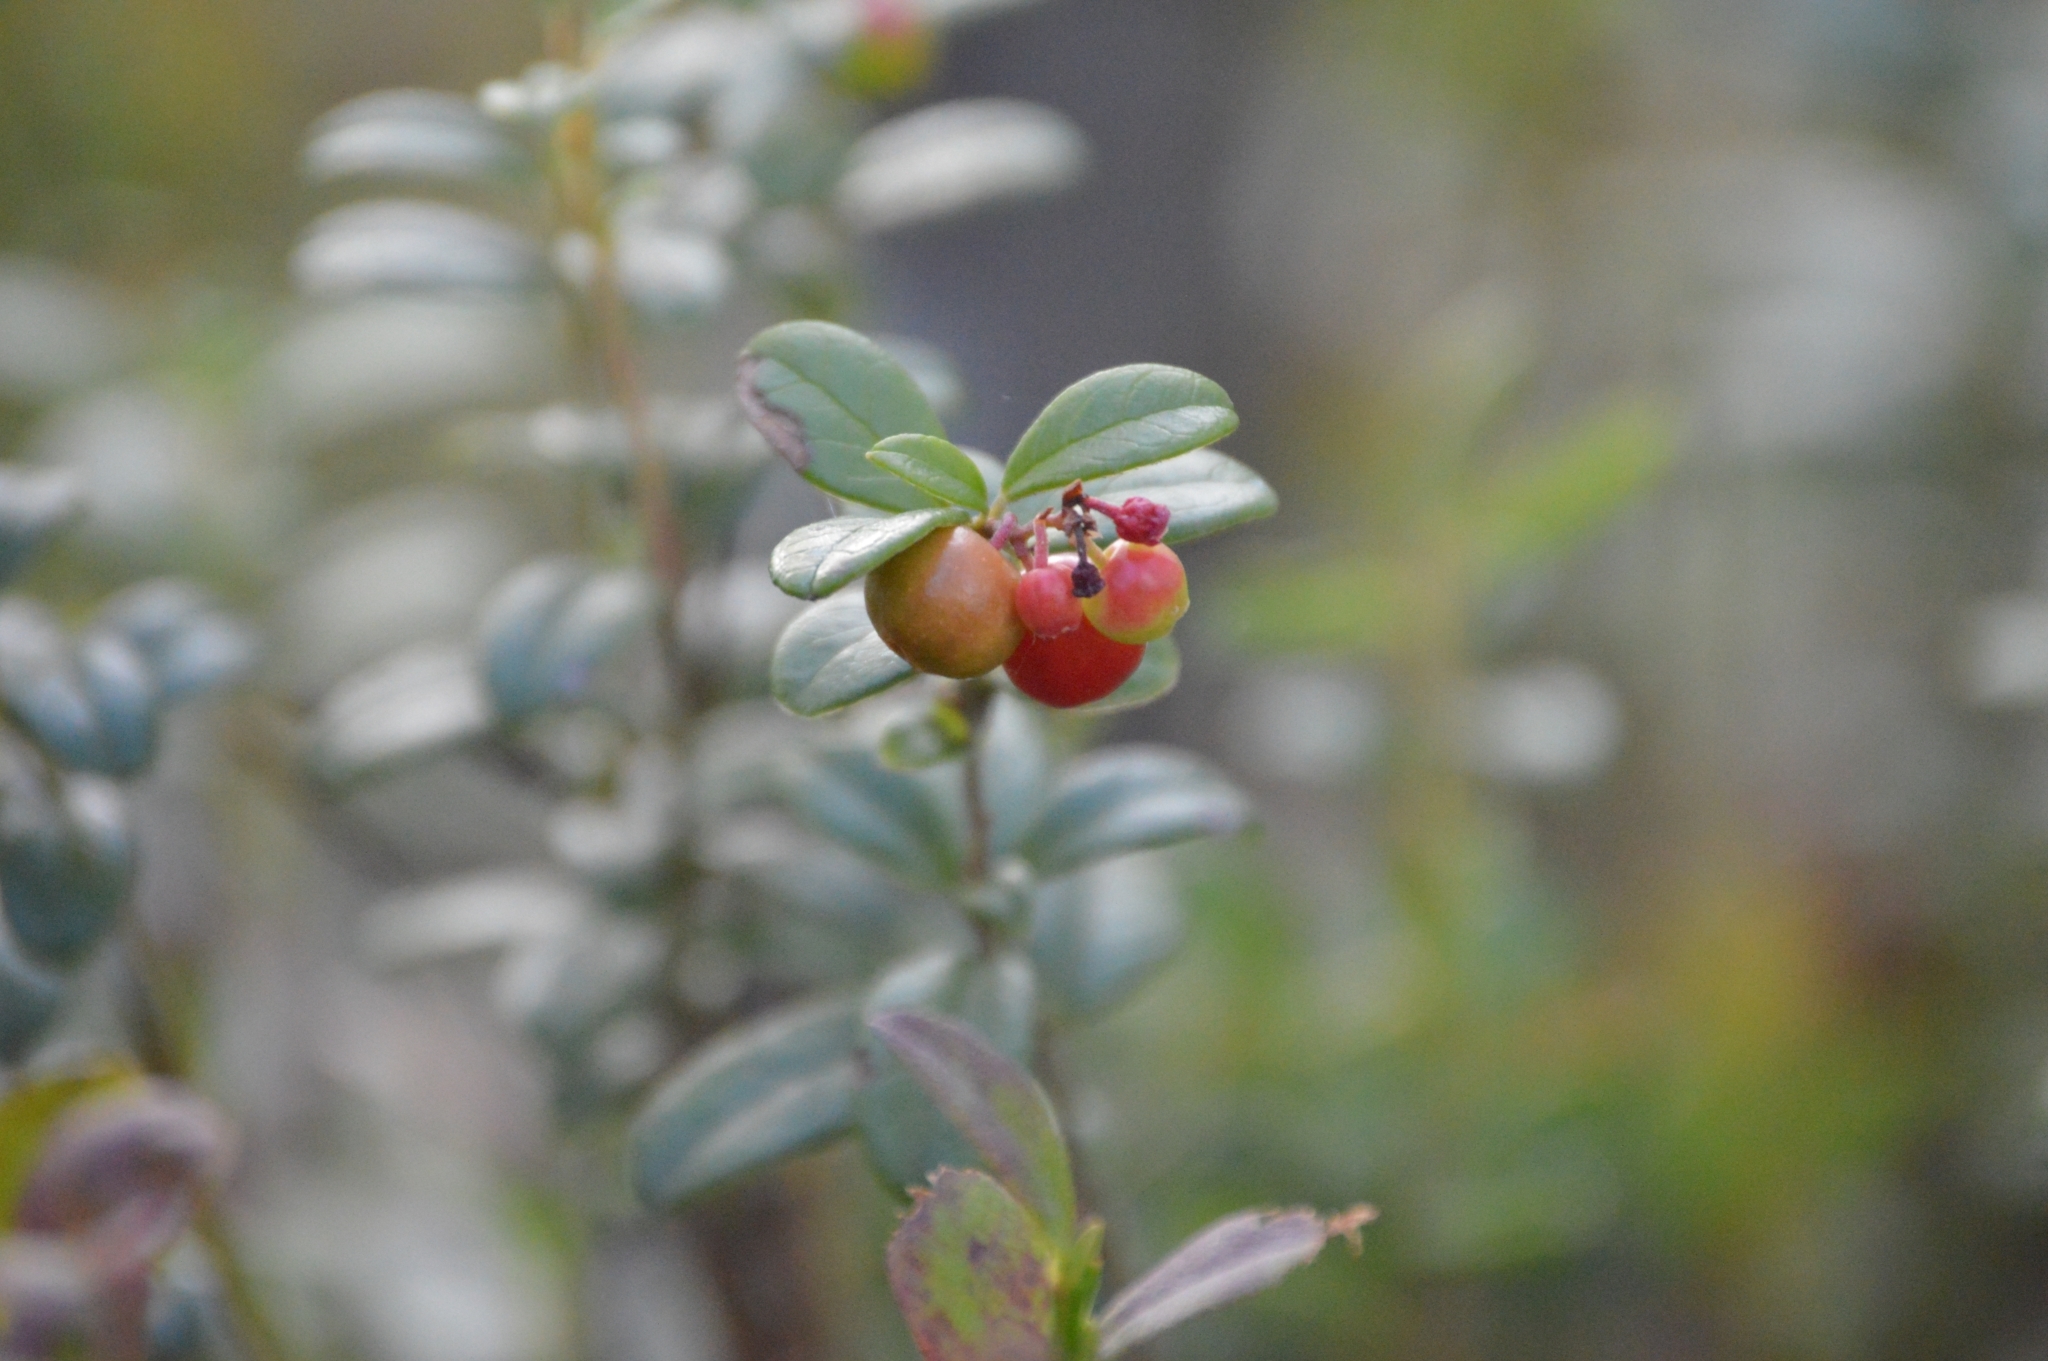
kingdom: Plantae
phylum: Tracheophyta
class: Magnoliopsida
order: Ericales
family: Ericaceae
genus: Vaccinium
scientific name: Vaccinium vitis-idaea
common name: Cowberry
